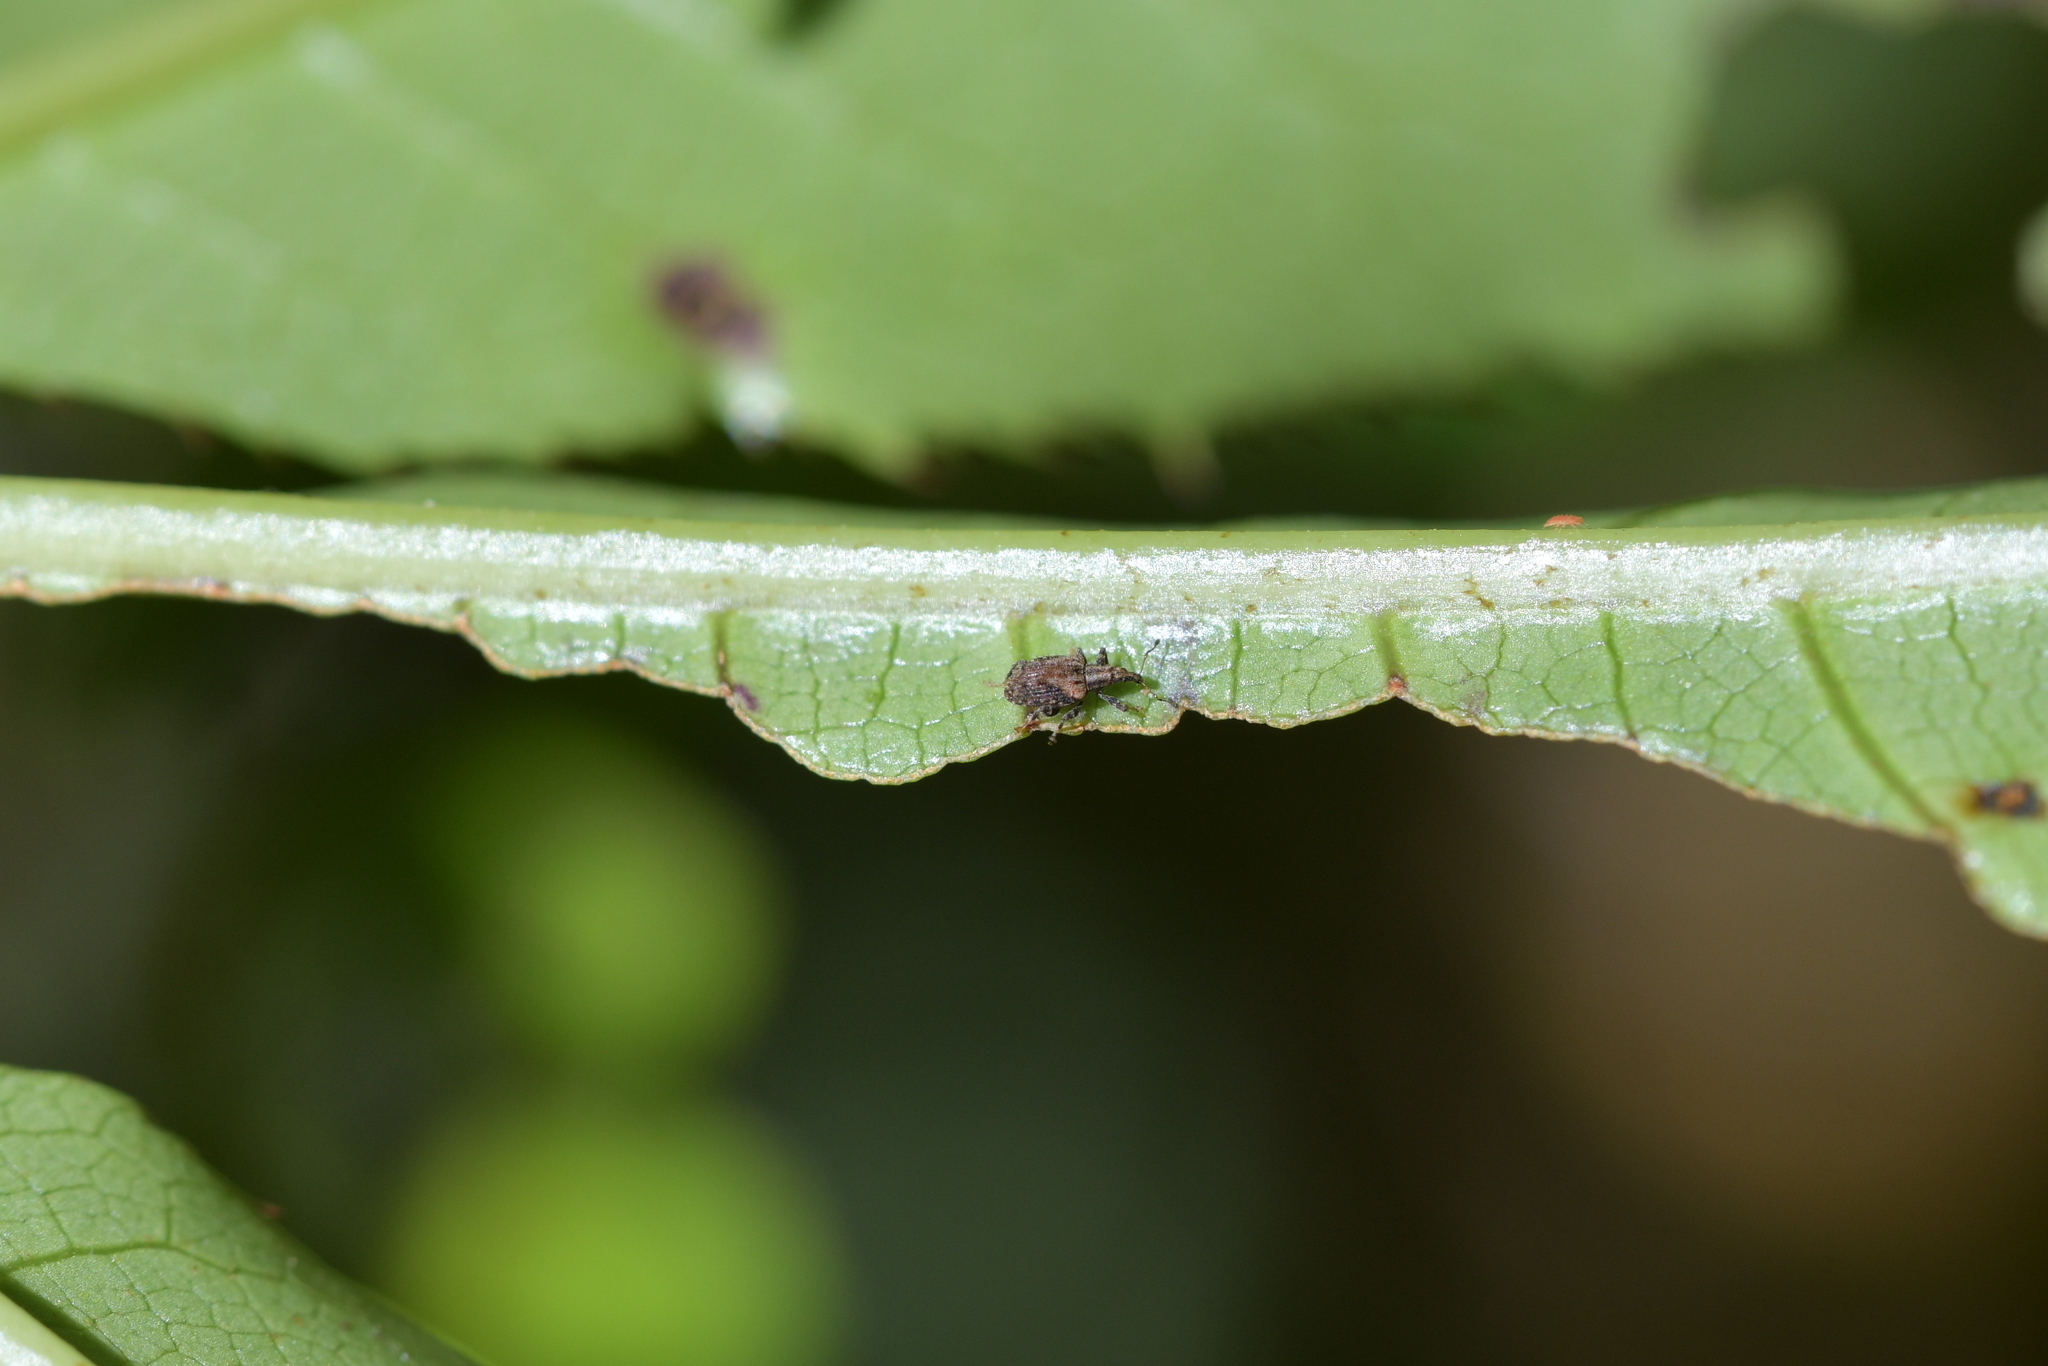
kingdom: Animalia
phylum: Arthropoda
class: Insecta
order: Coleoptera
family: Curculionidae
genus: Tysius
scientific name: Tysius bicornis
